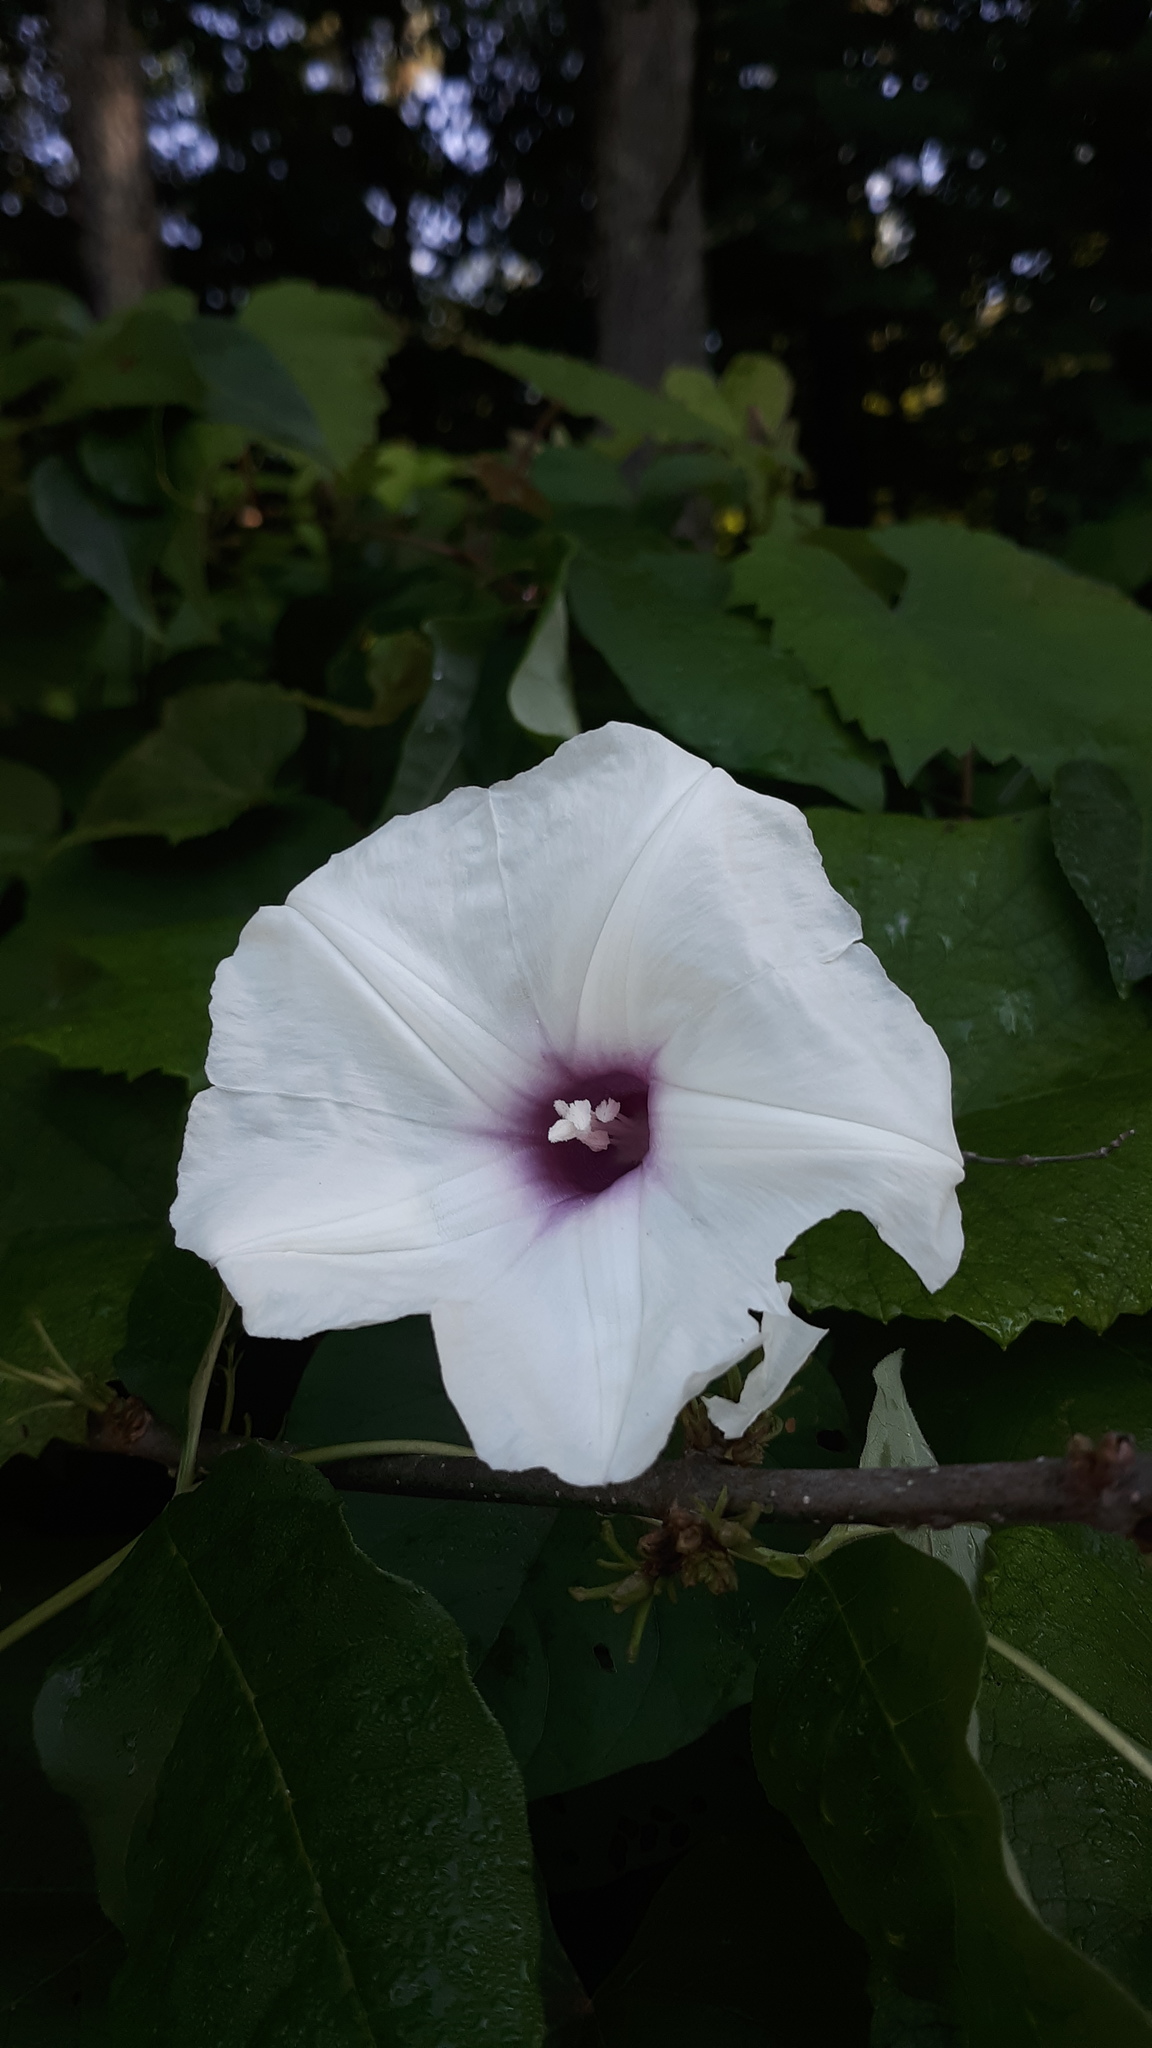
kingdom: Plantae
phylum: Tracheophyta
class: Magnoliopsida
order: Solanales
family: Convolvulaceae
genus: Ipomoea
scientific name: Ipomoea pandurata
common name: Man-of-the-earth
